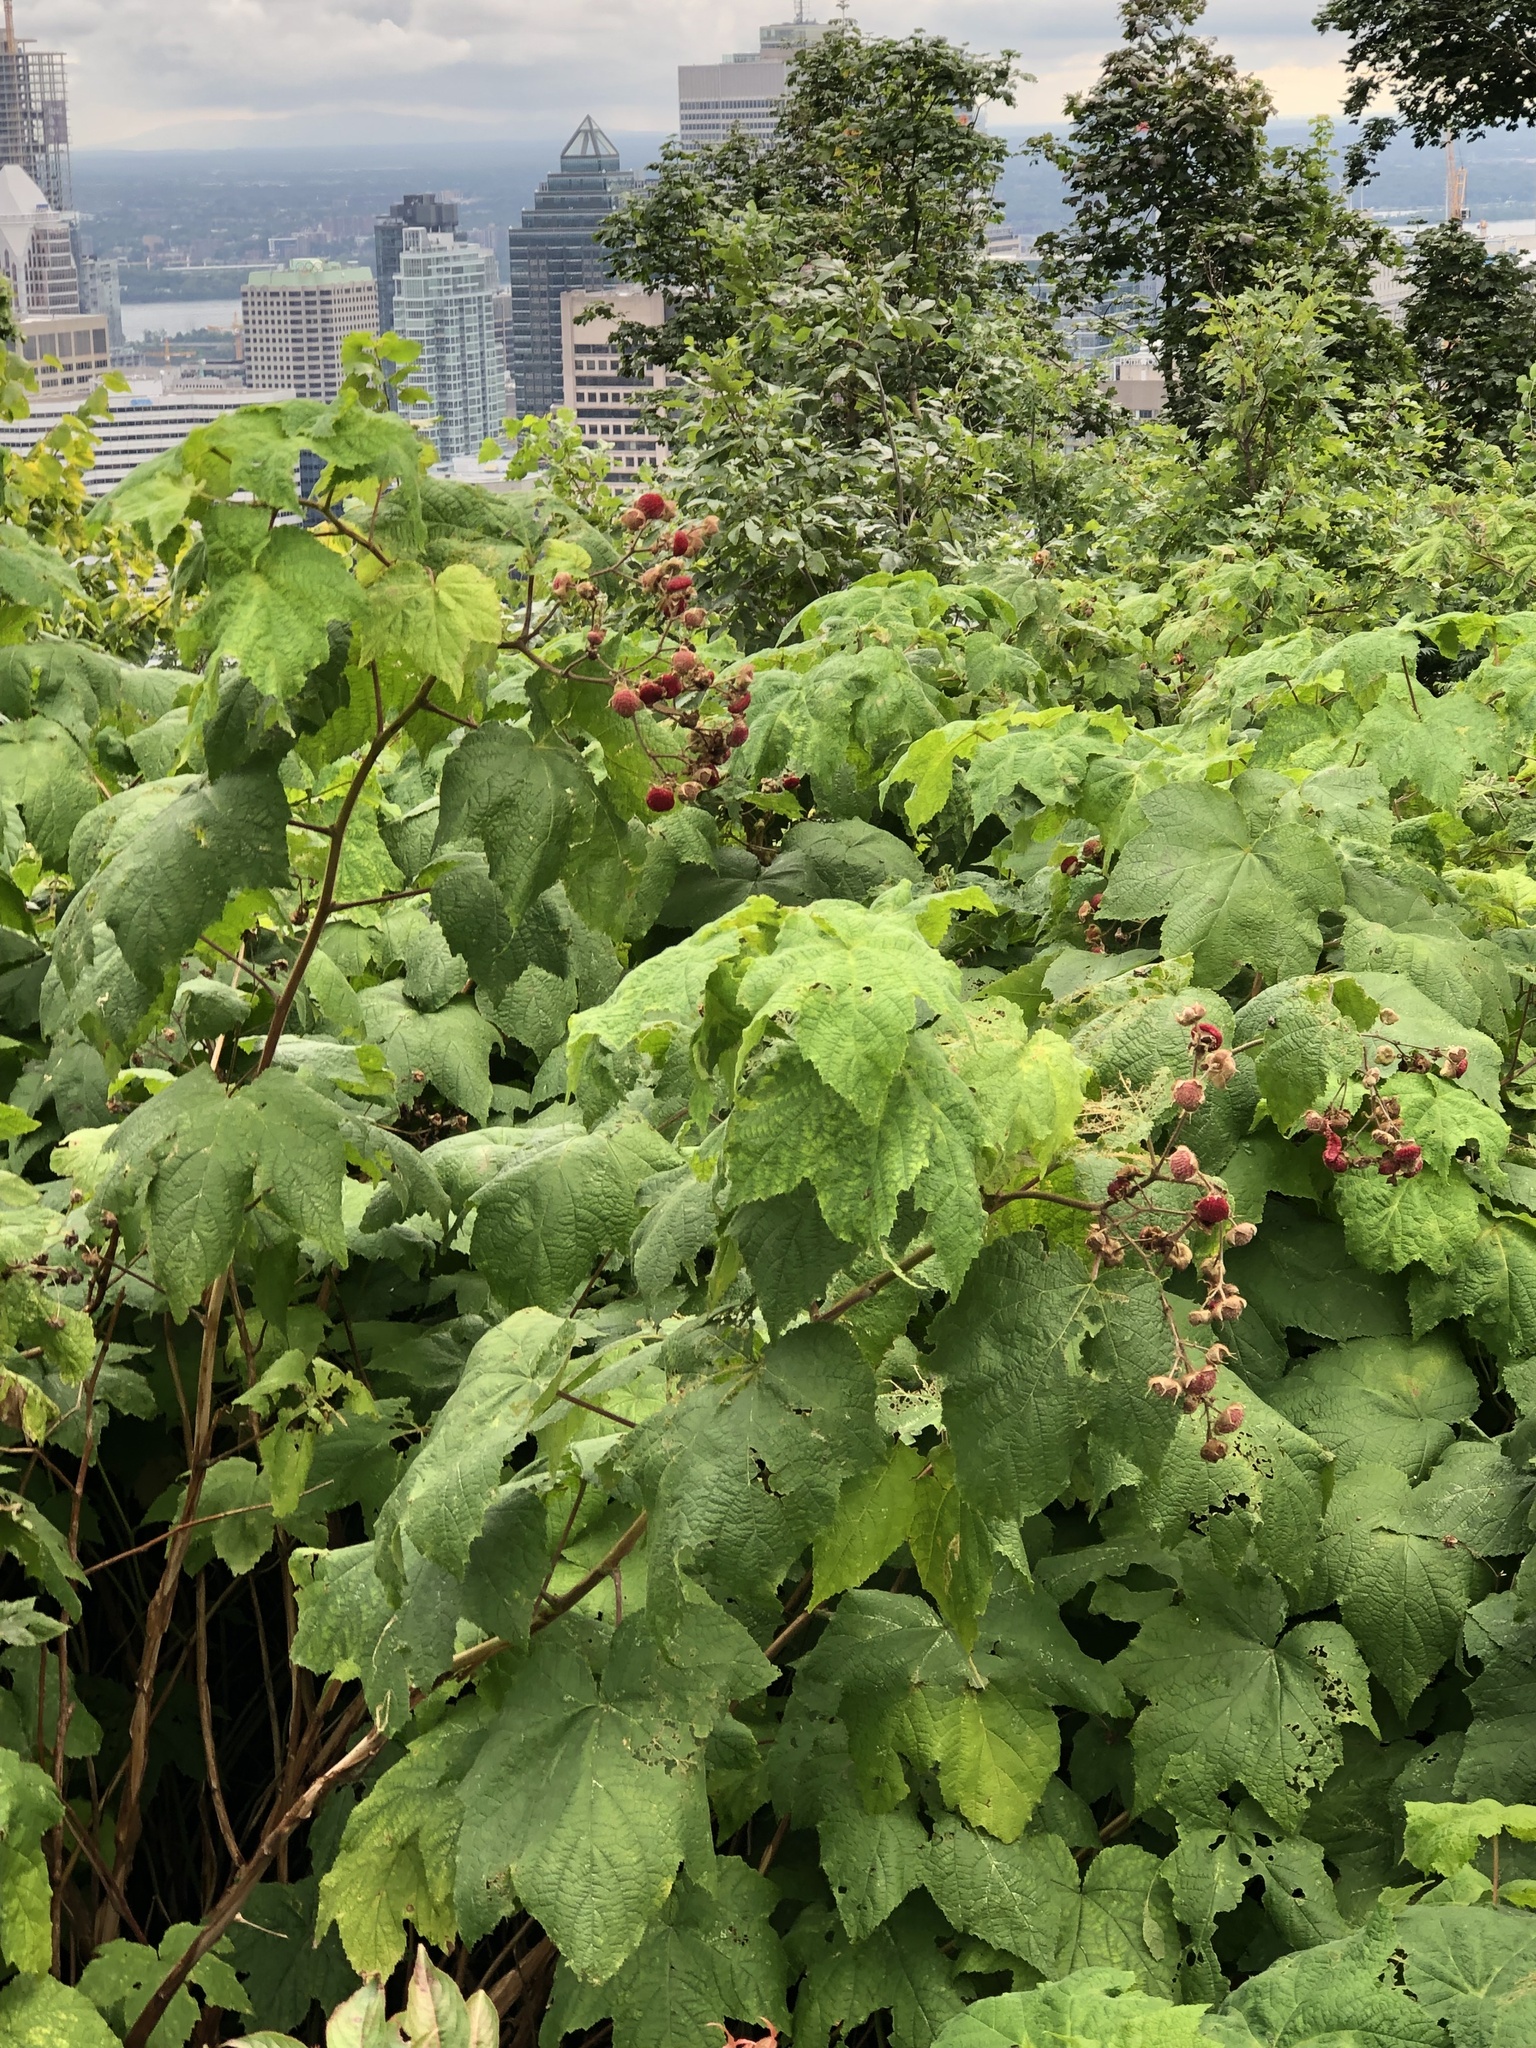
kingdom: Plantae
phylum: Tracheophyta
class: Magnoliopsida
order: Rosales
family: Rosaceae
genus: Rubus
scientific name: Rubus odoratus
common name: Purple-flowered raspberry
